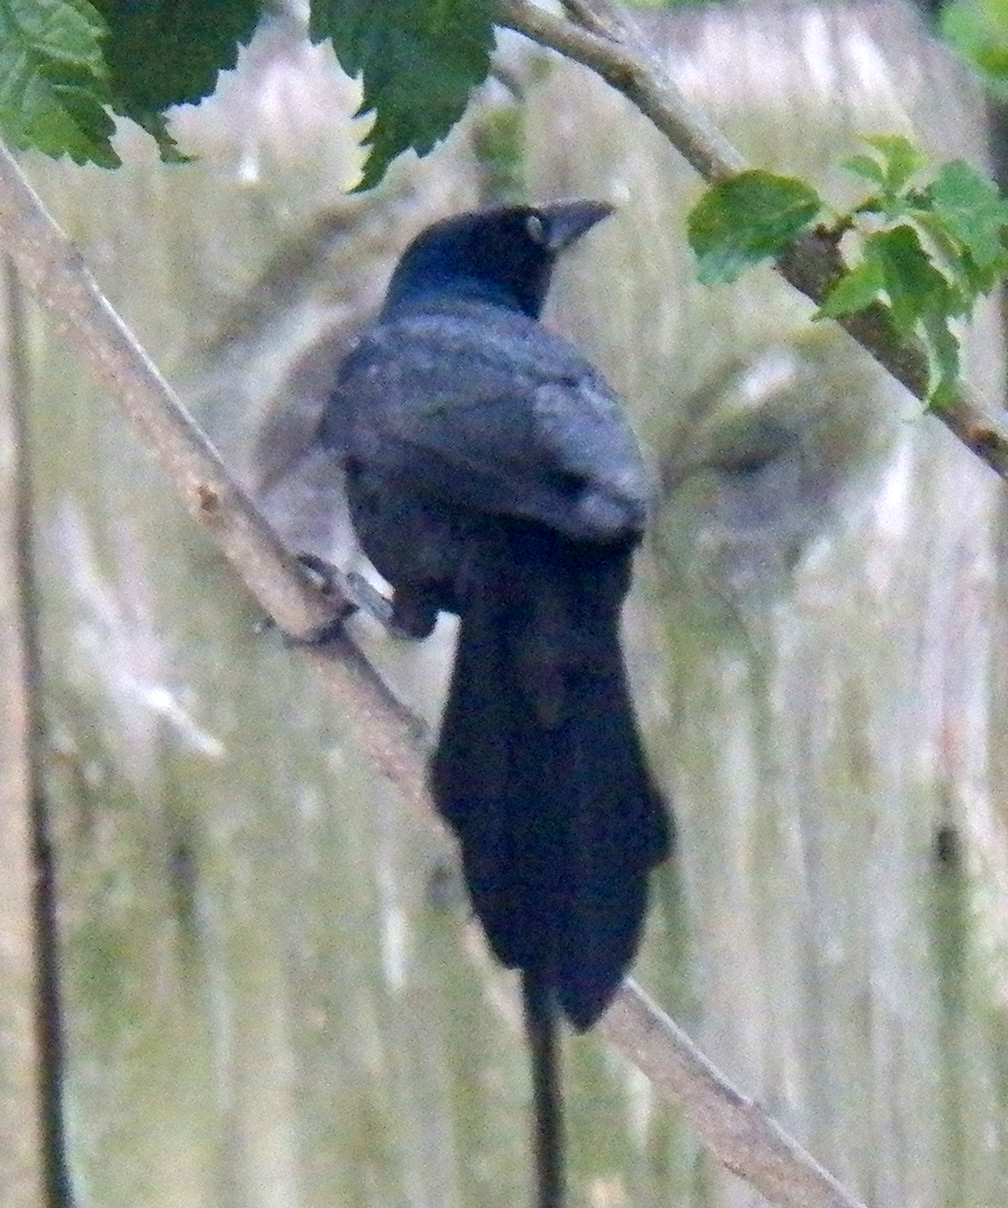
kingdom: Animalia
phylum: Chordata
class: Aves
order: Passeriformes
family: Icteridae
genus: Quiscalus
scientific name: Quiscalus mexicanus
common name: Great-tailed grackle
